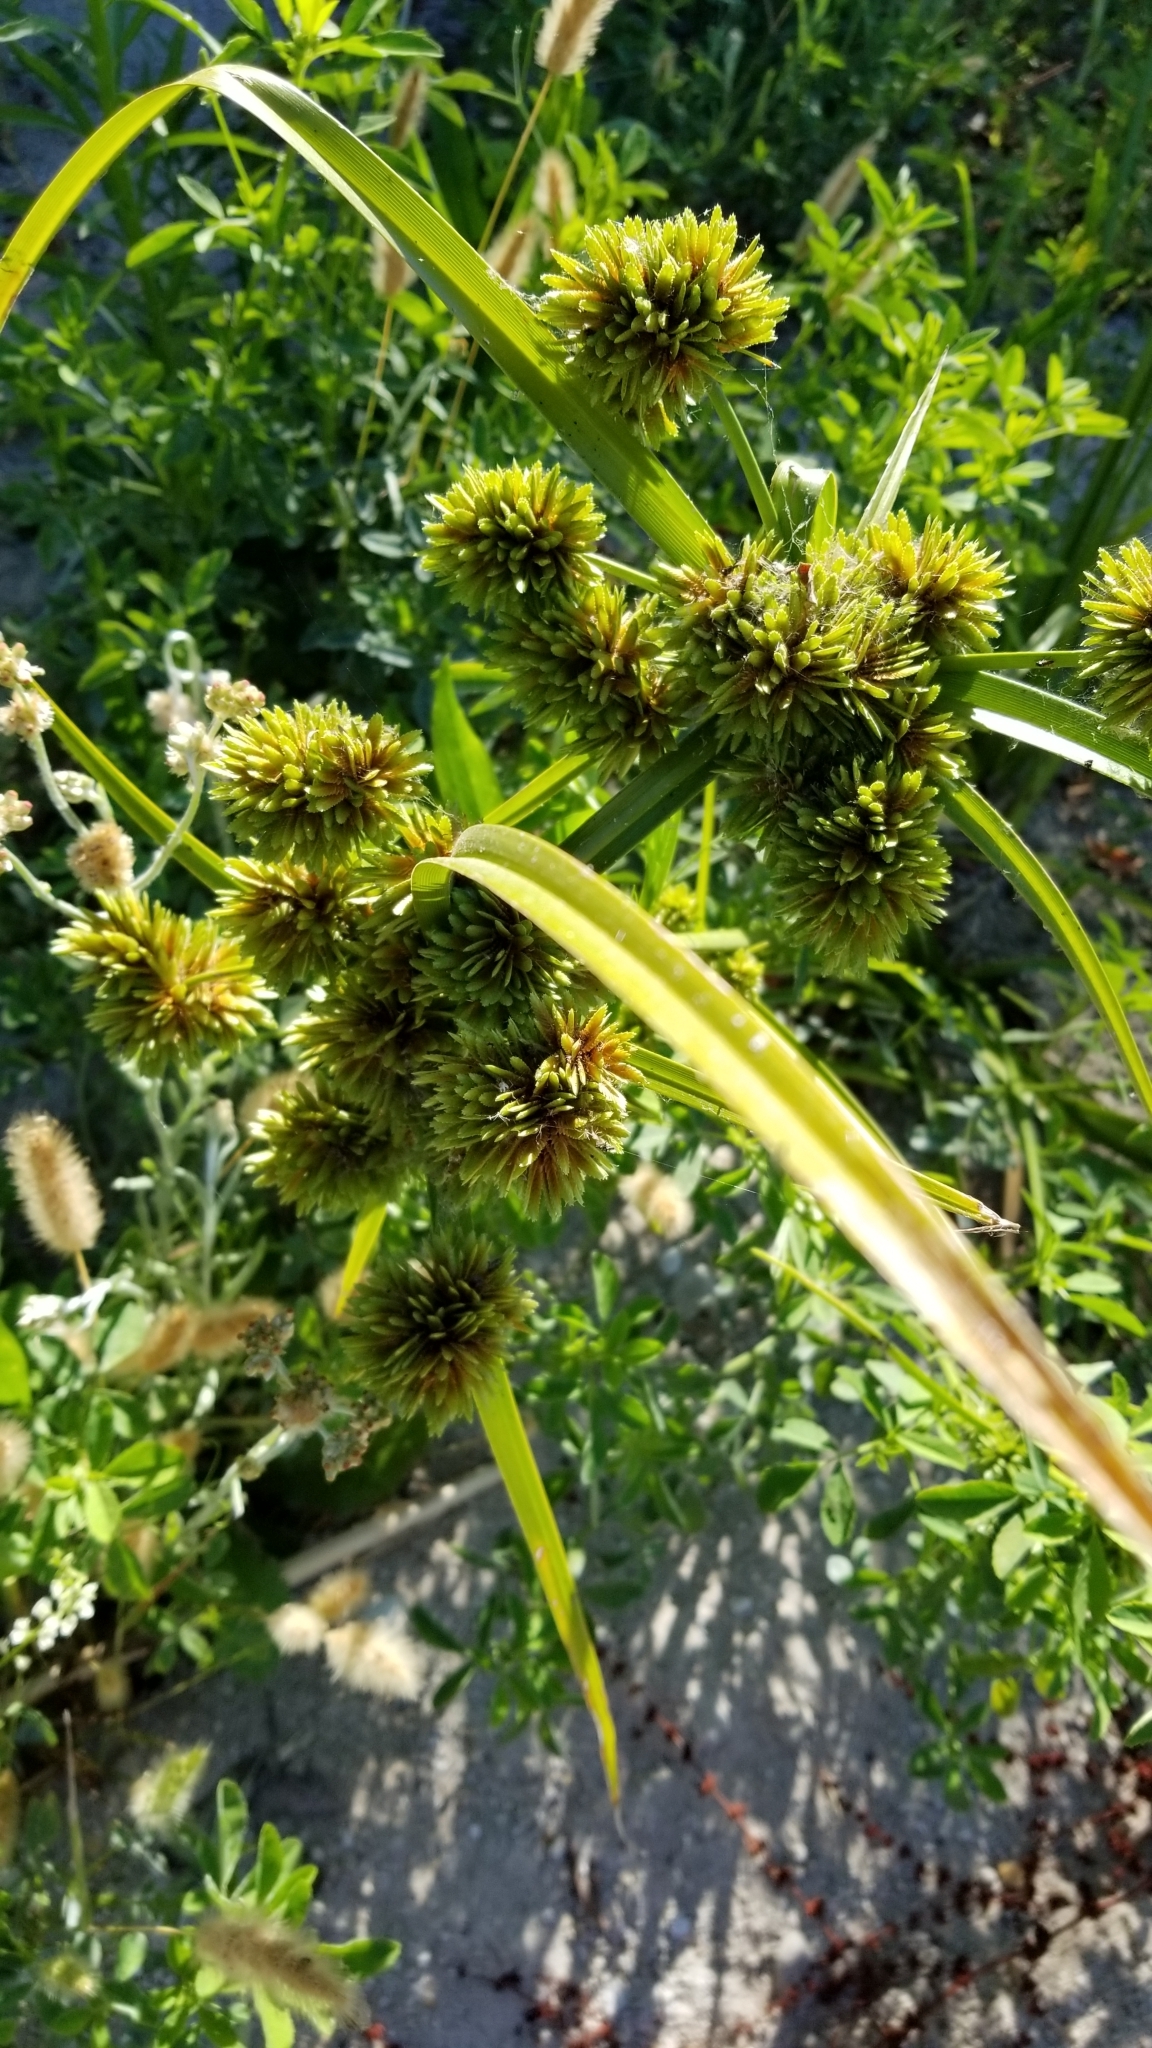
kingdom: Plantae
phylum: Tracheophyta
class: Liliopsida
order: Poales
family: Cyperaceae
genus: Cyperus
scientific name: Cyperus eragrostis
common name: Tall flatsedge
